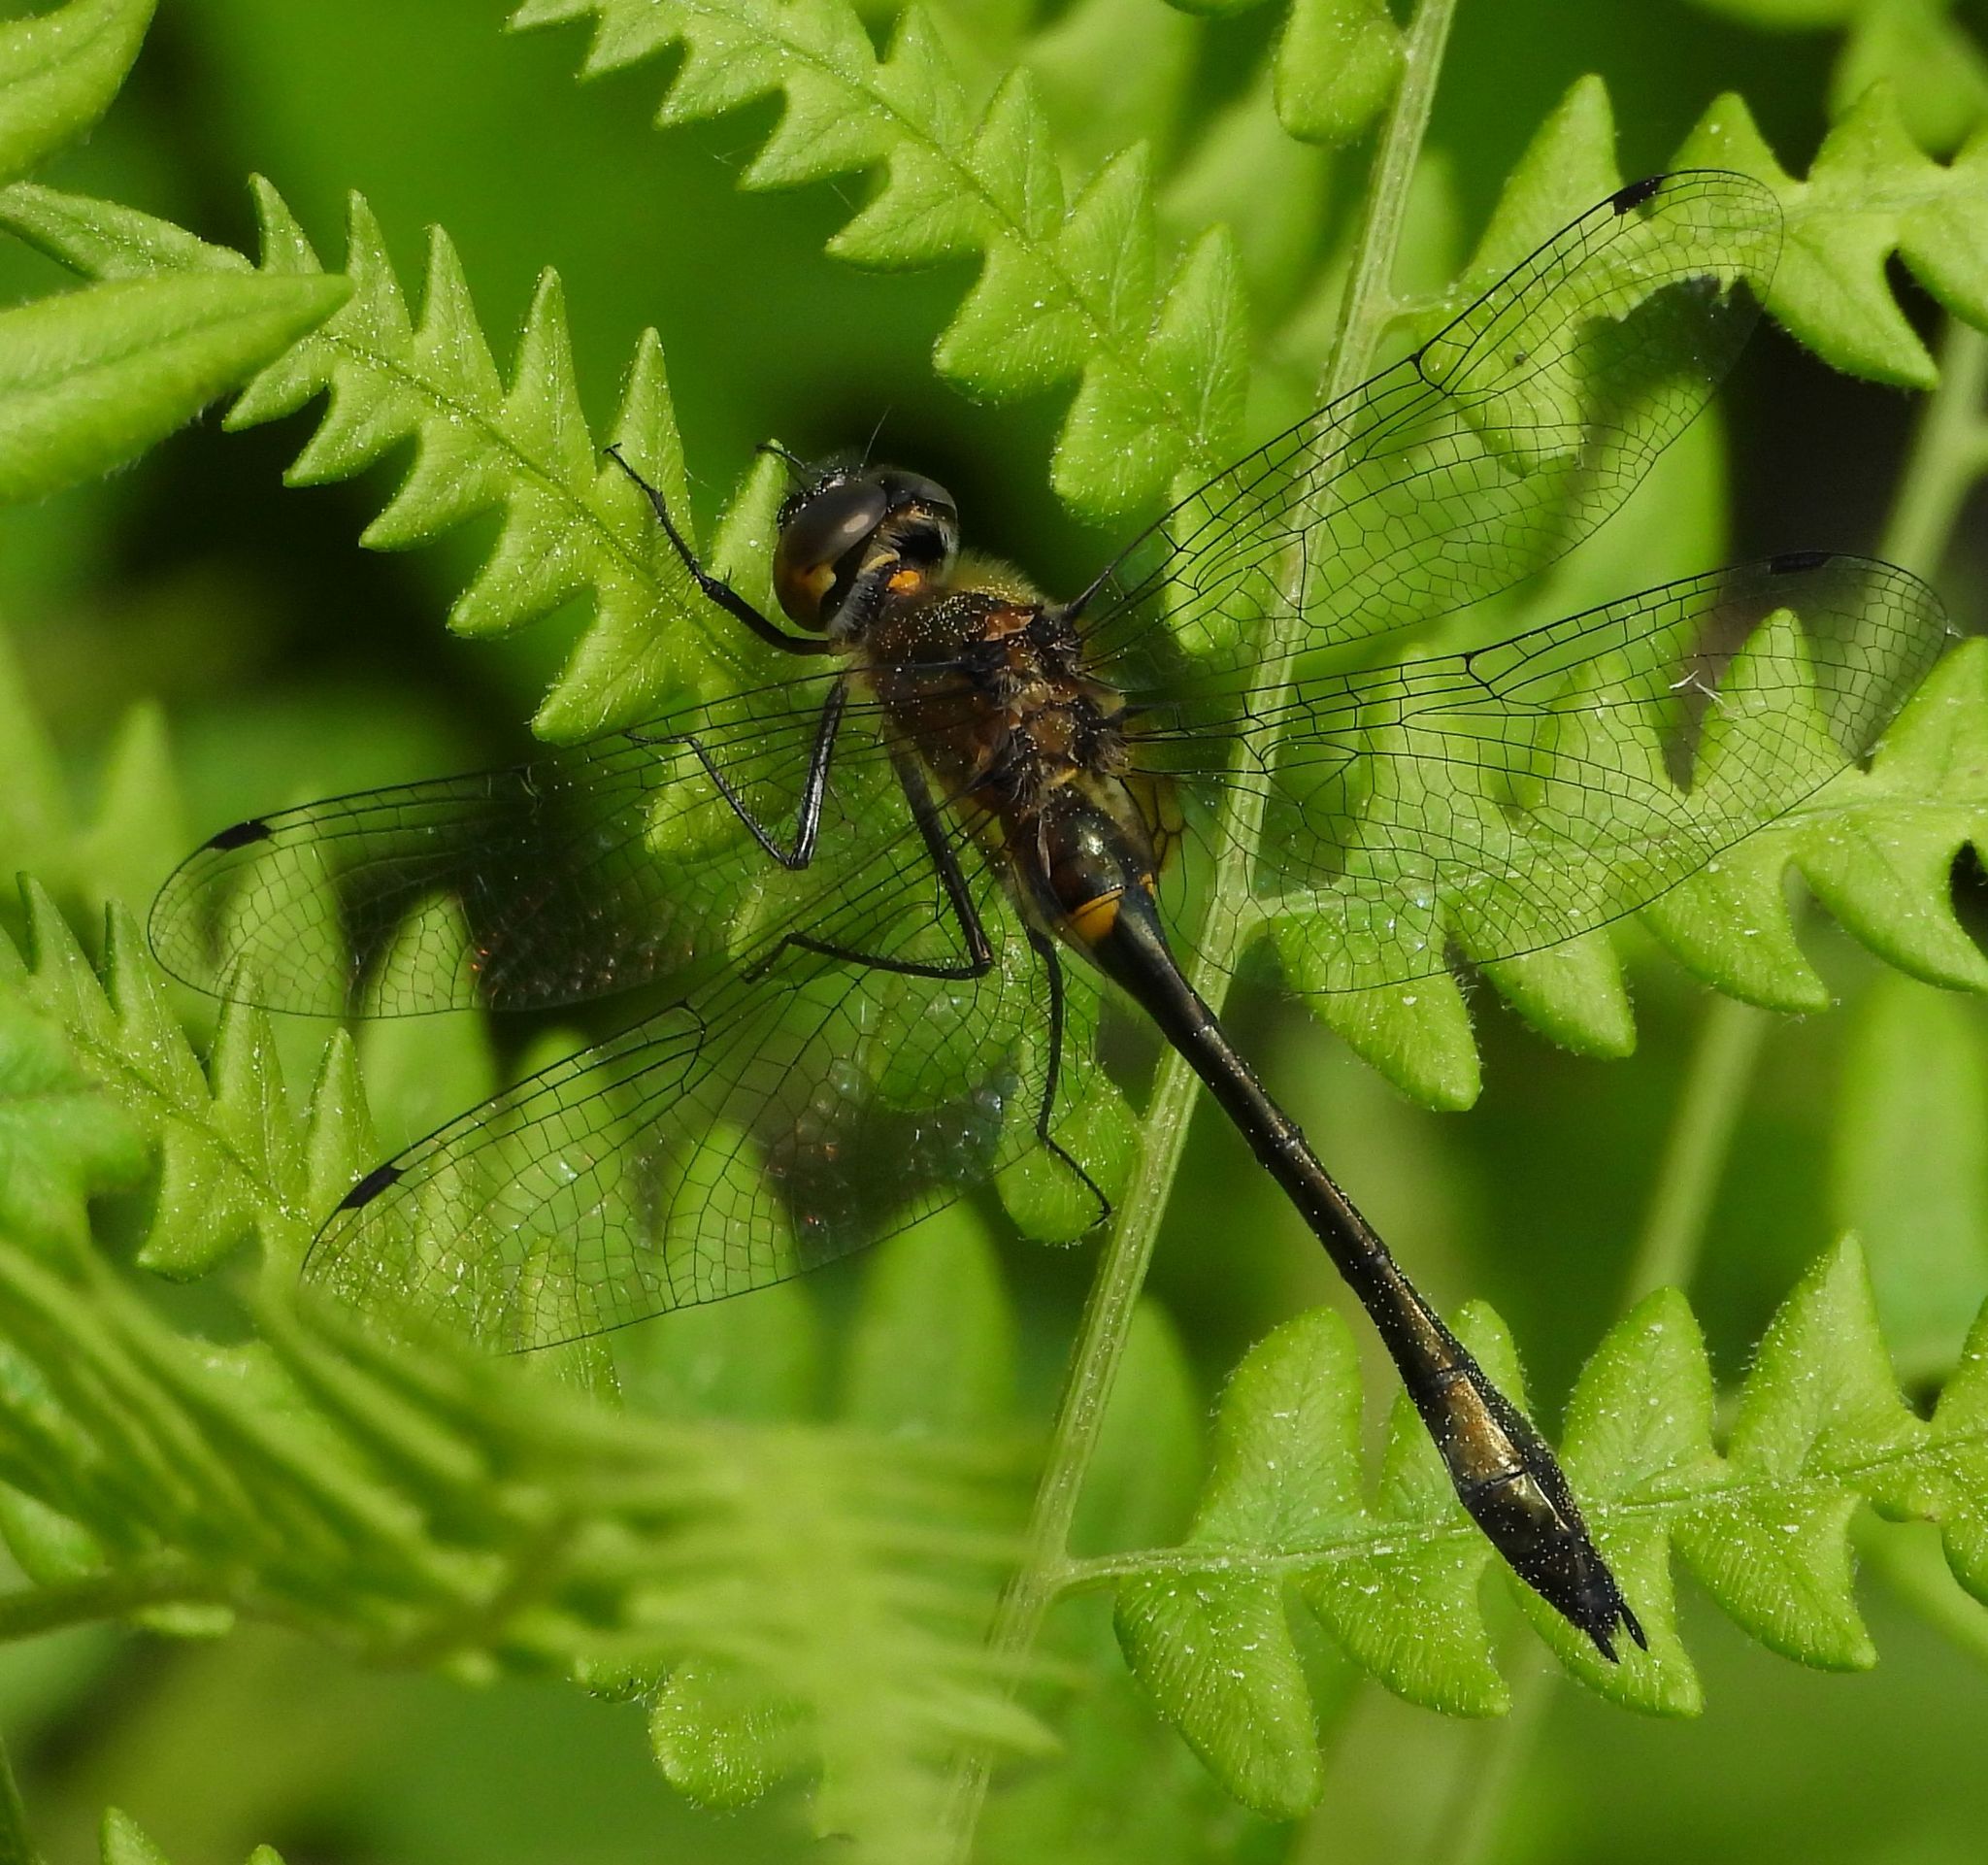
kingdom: Animalia
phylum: Arthropoda
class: Insecta
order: Odonata
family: Corduliidae
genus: Dorocordulia
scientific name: Dorocordulia libera
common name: Racket-tailed emerald
